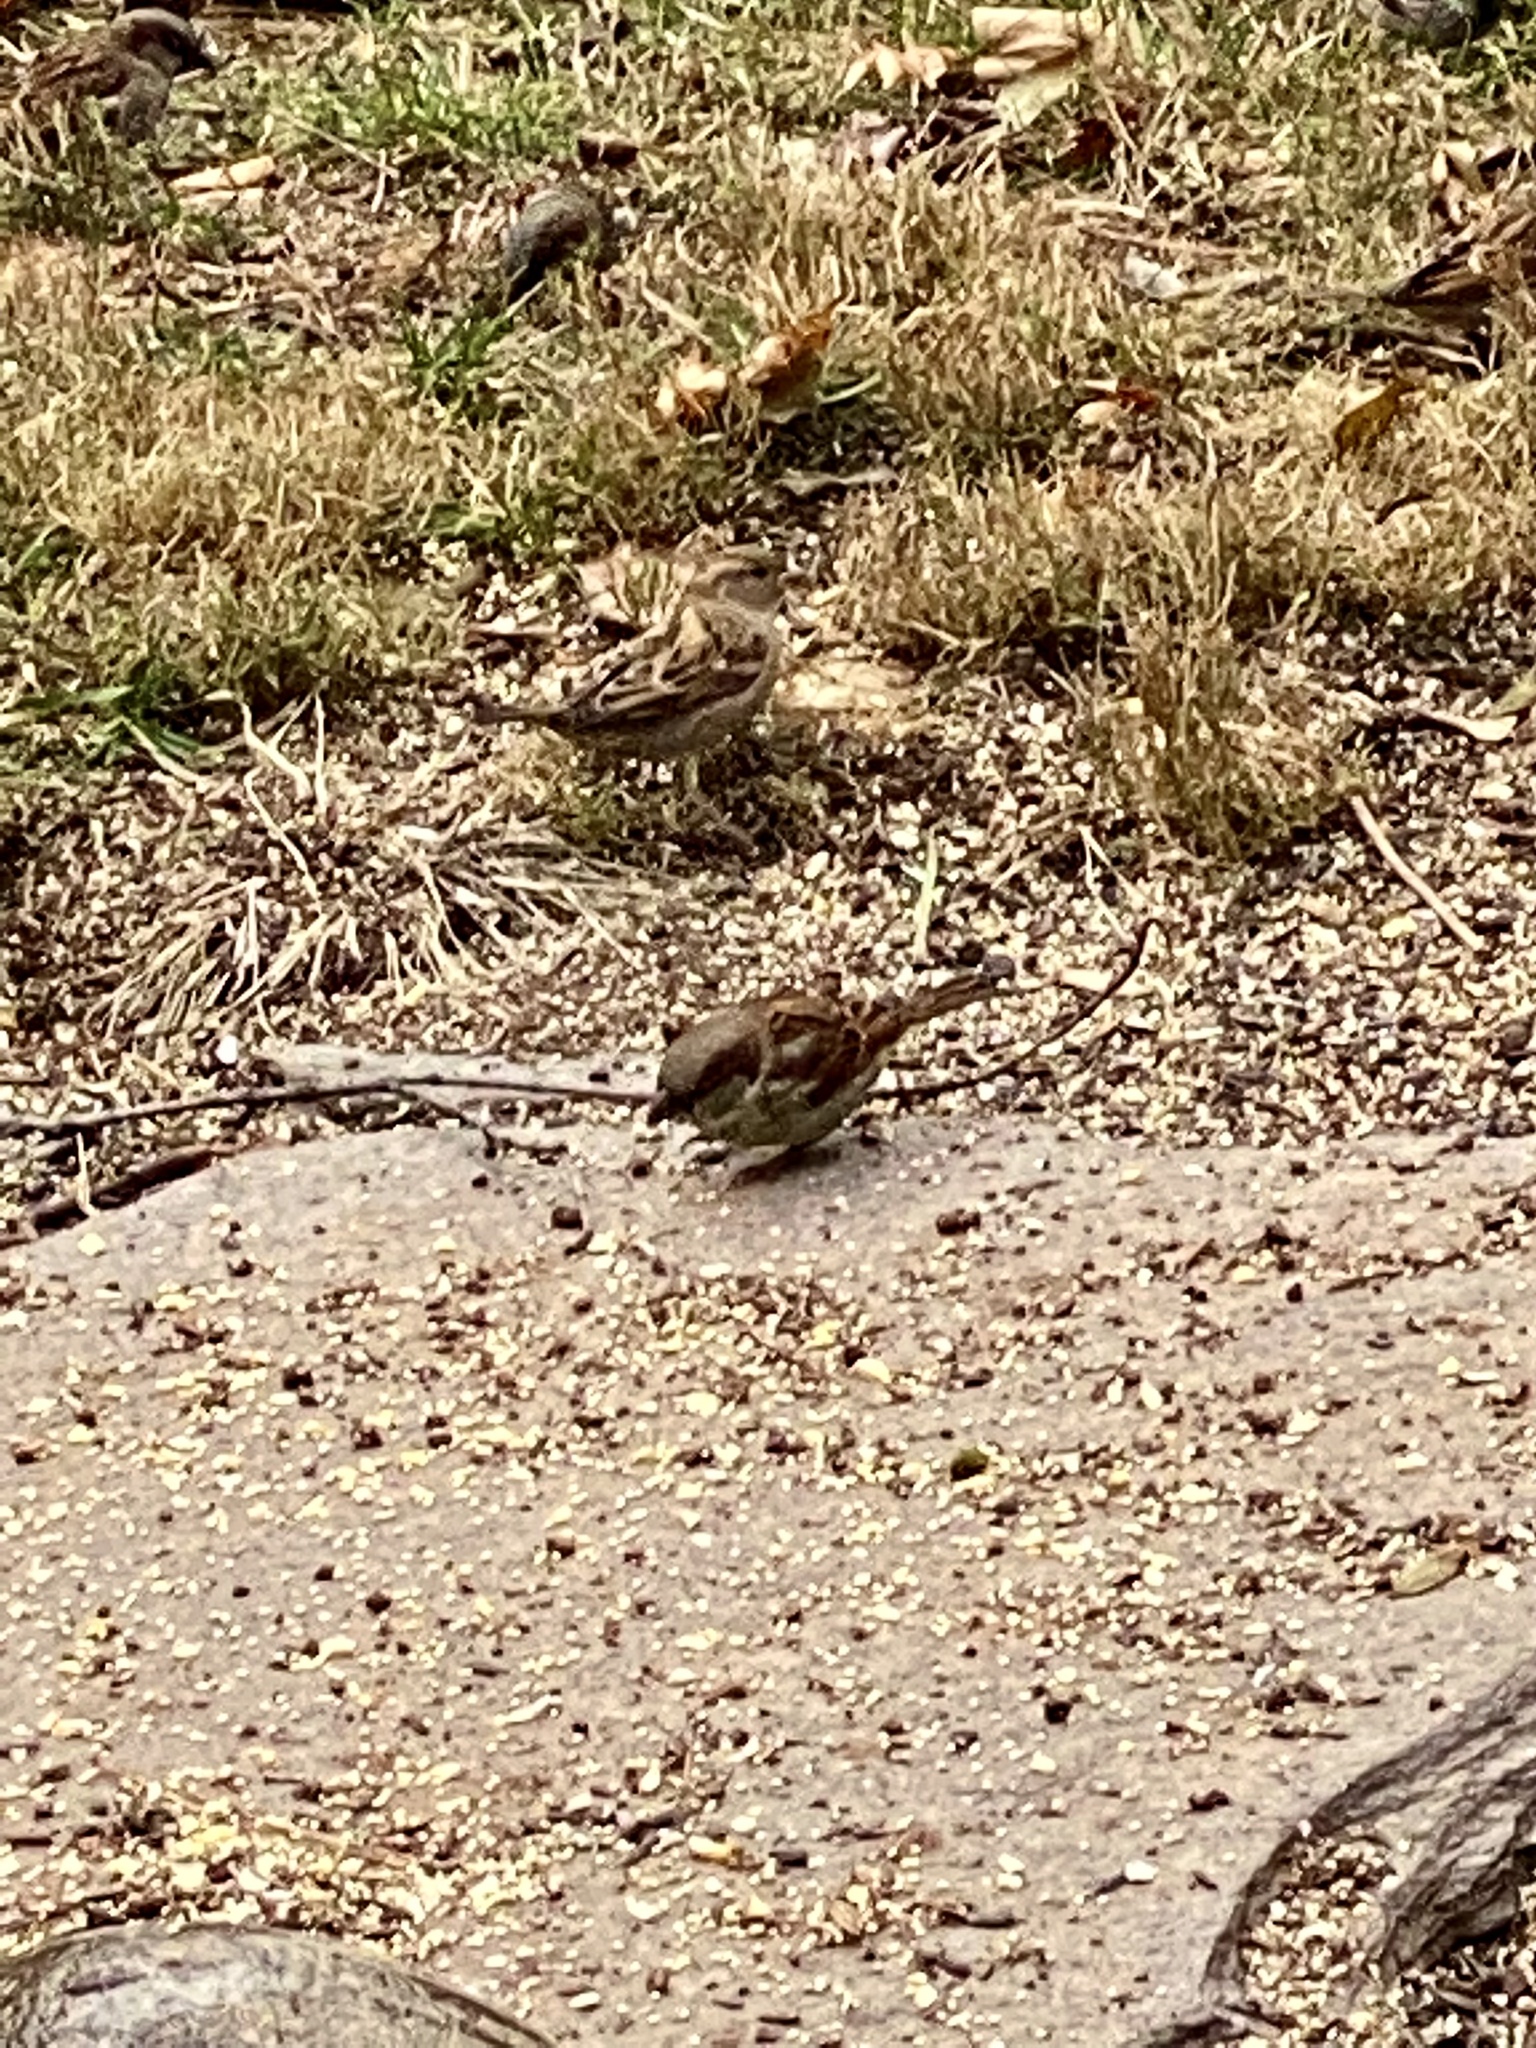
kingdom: Animalia
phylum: Chordata
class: Aves
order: Passeriformes
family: Passeridae
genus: Passer
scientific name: Passer domesticus
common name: House sparrow
